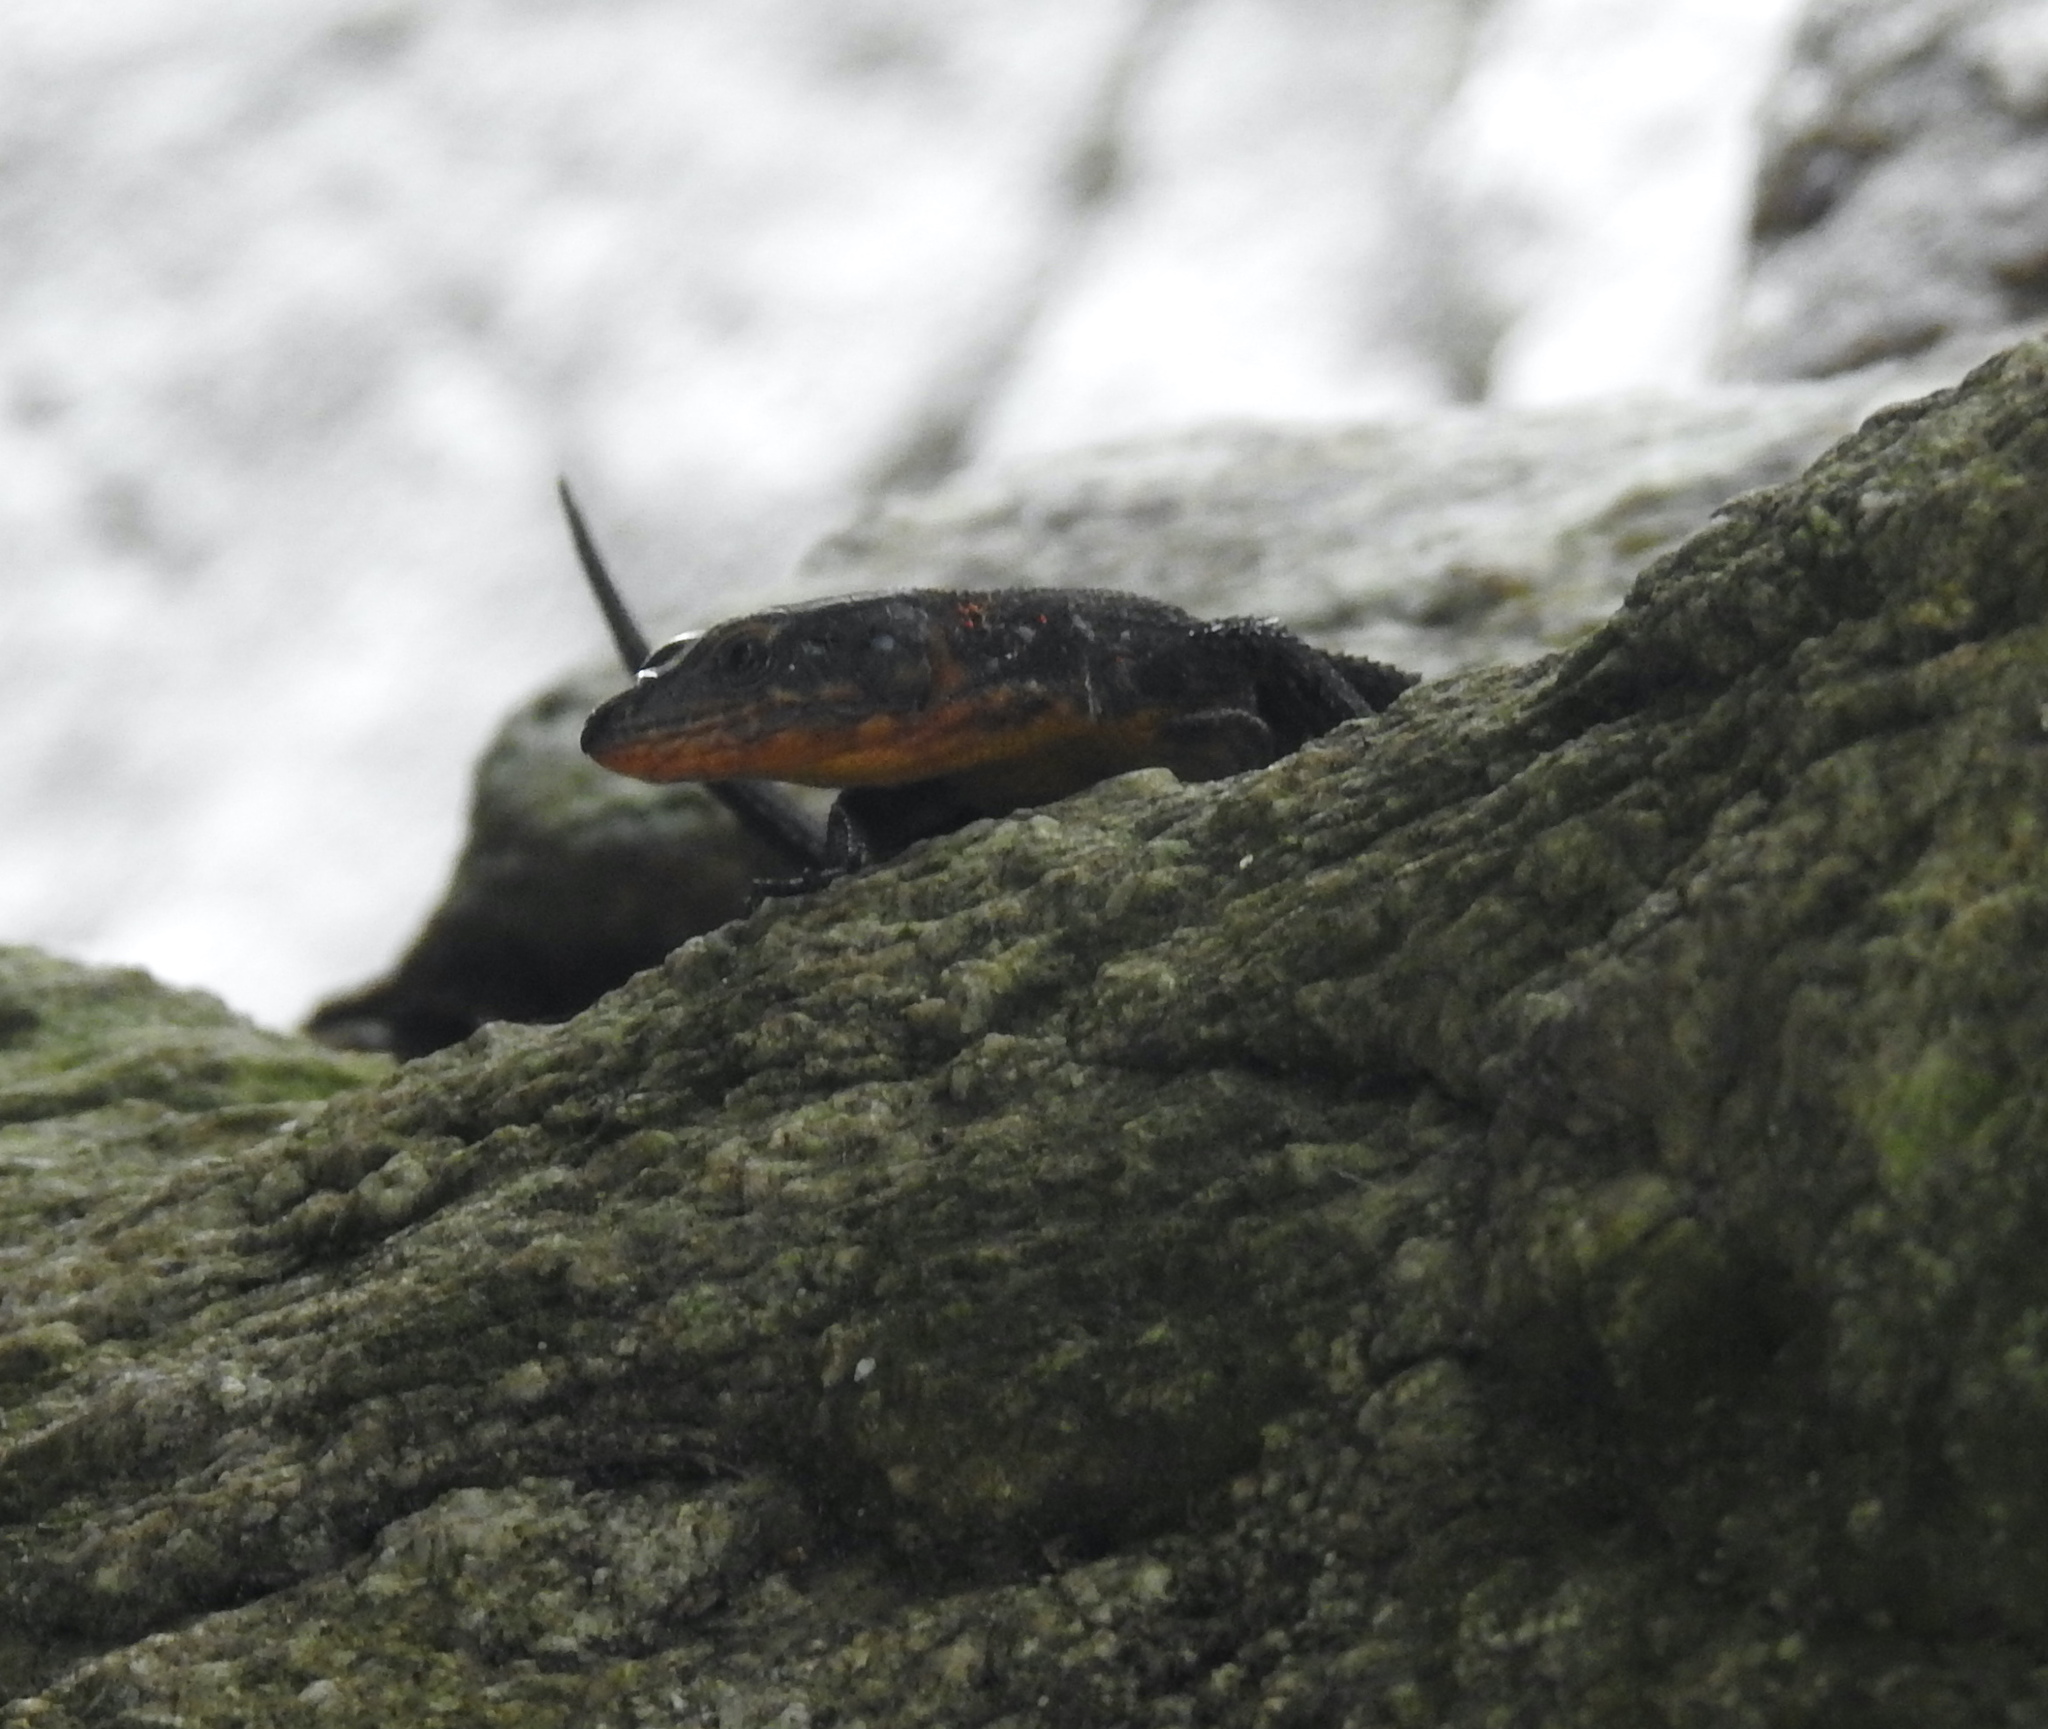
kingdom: Animalia
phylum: Chordata
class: Squamata
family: Cordylidae
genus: Ninurta
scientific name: Ninurta coeruleopunctatus
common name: Blue-spotted girdled lizard
